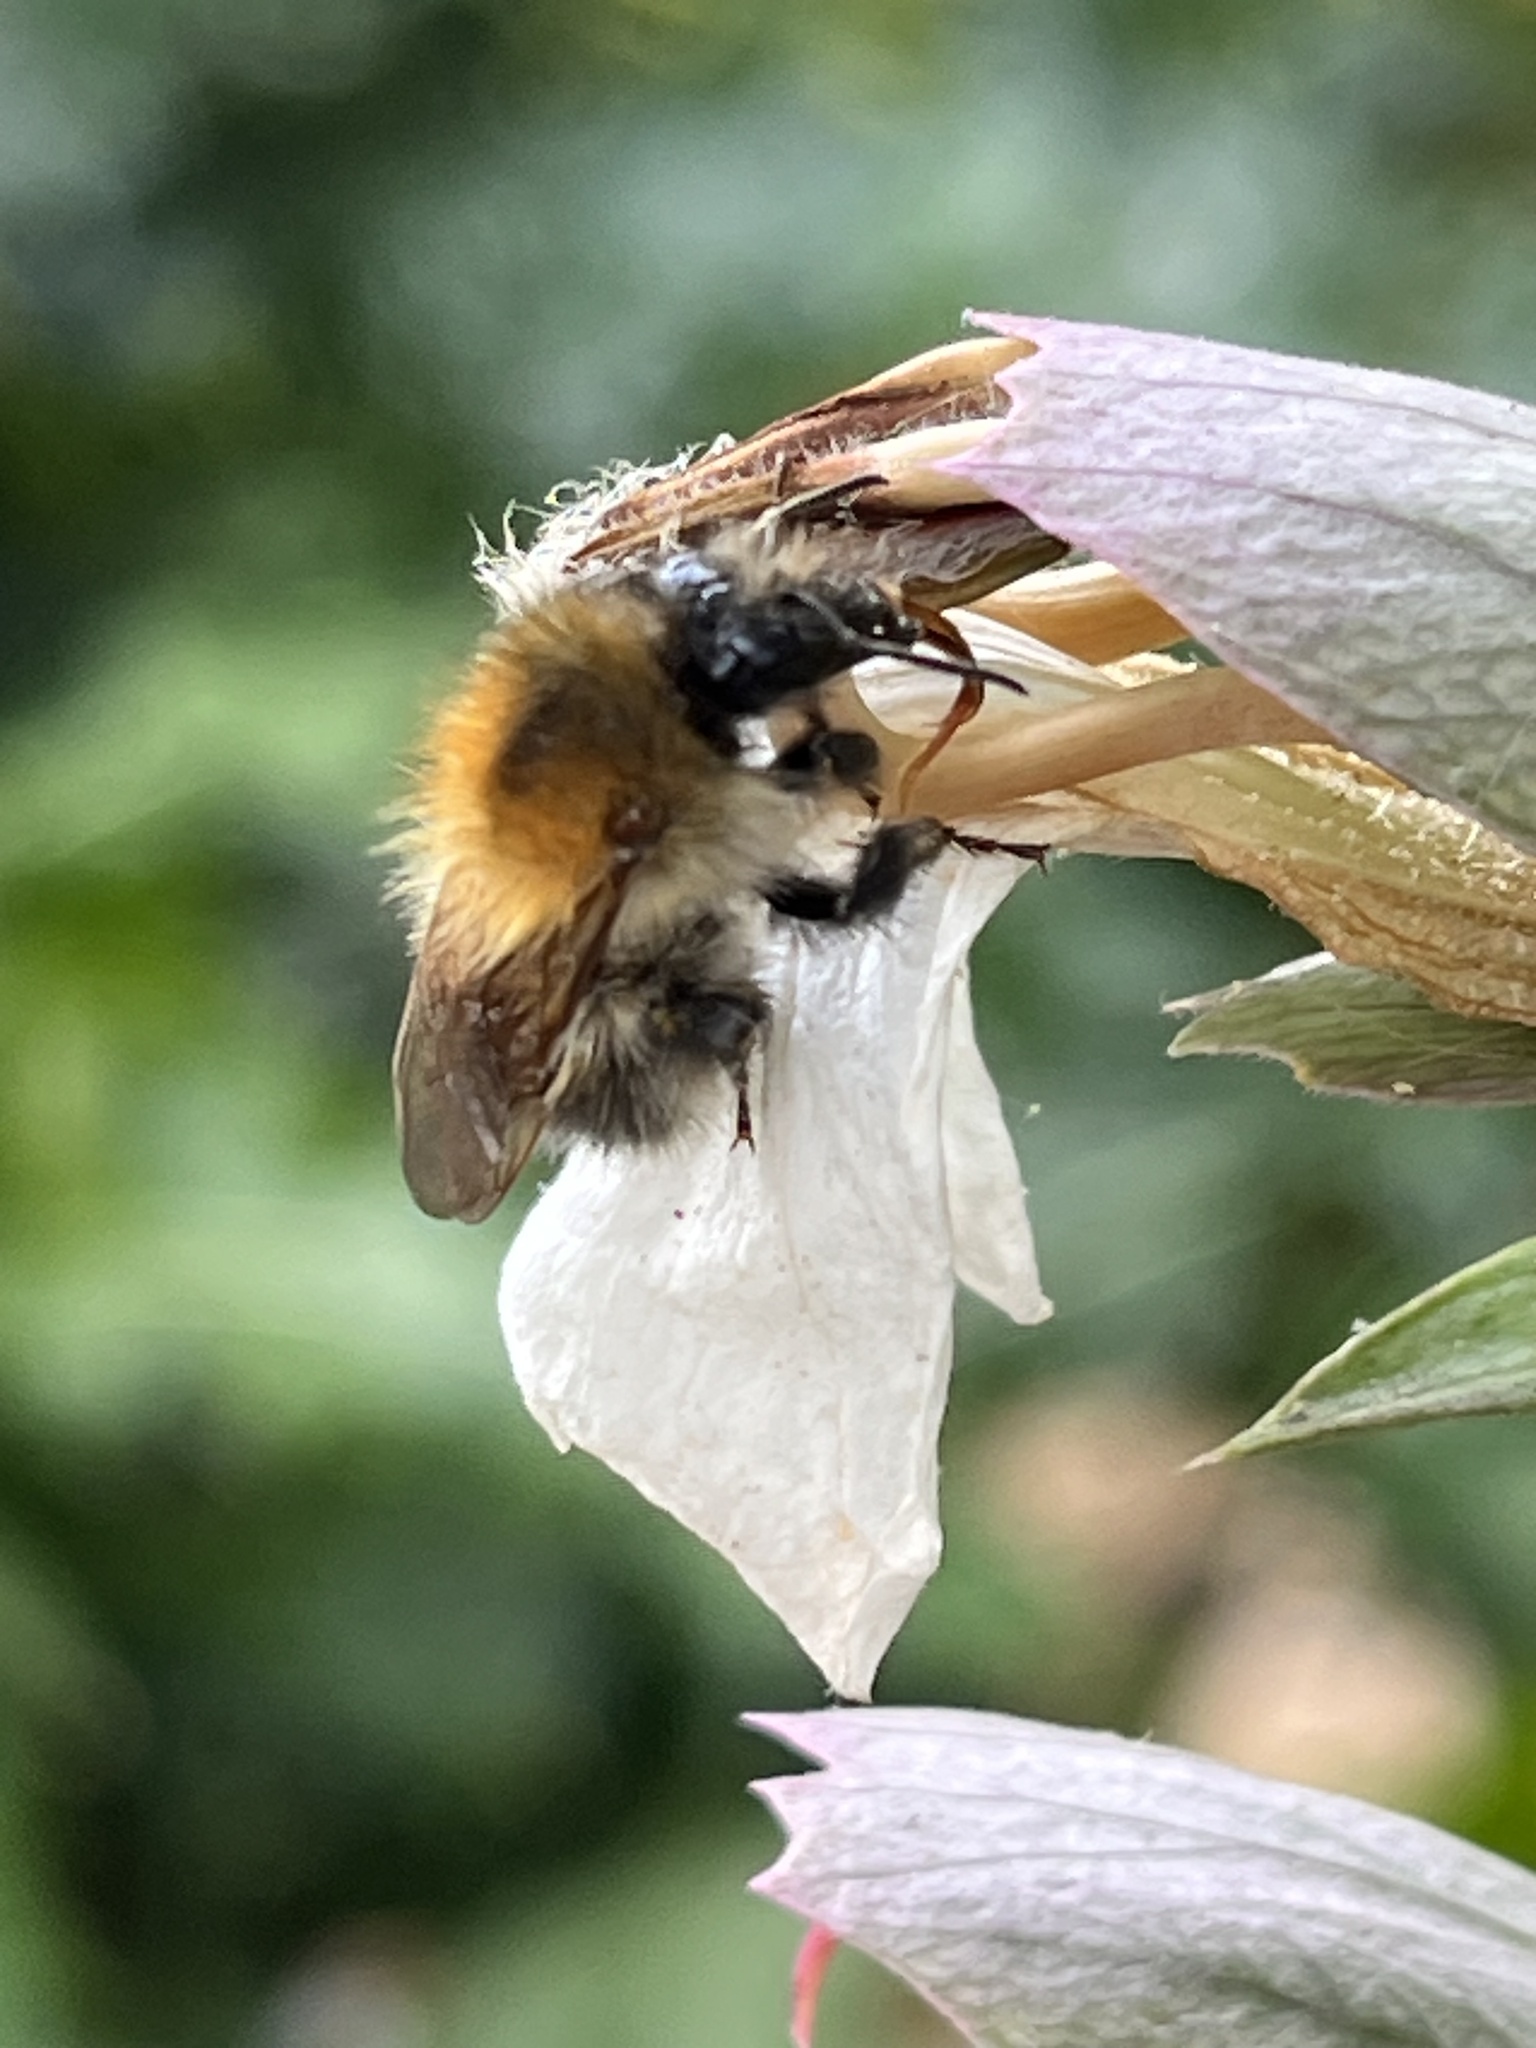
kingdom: Animalia
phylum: Arthropoda
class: Insecta
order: Hymenoptera
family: Apidae
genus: Bombus
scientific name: Bombus pascuorum
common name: Common carder bee
